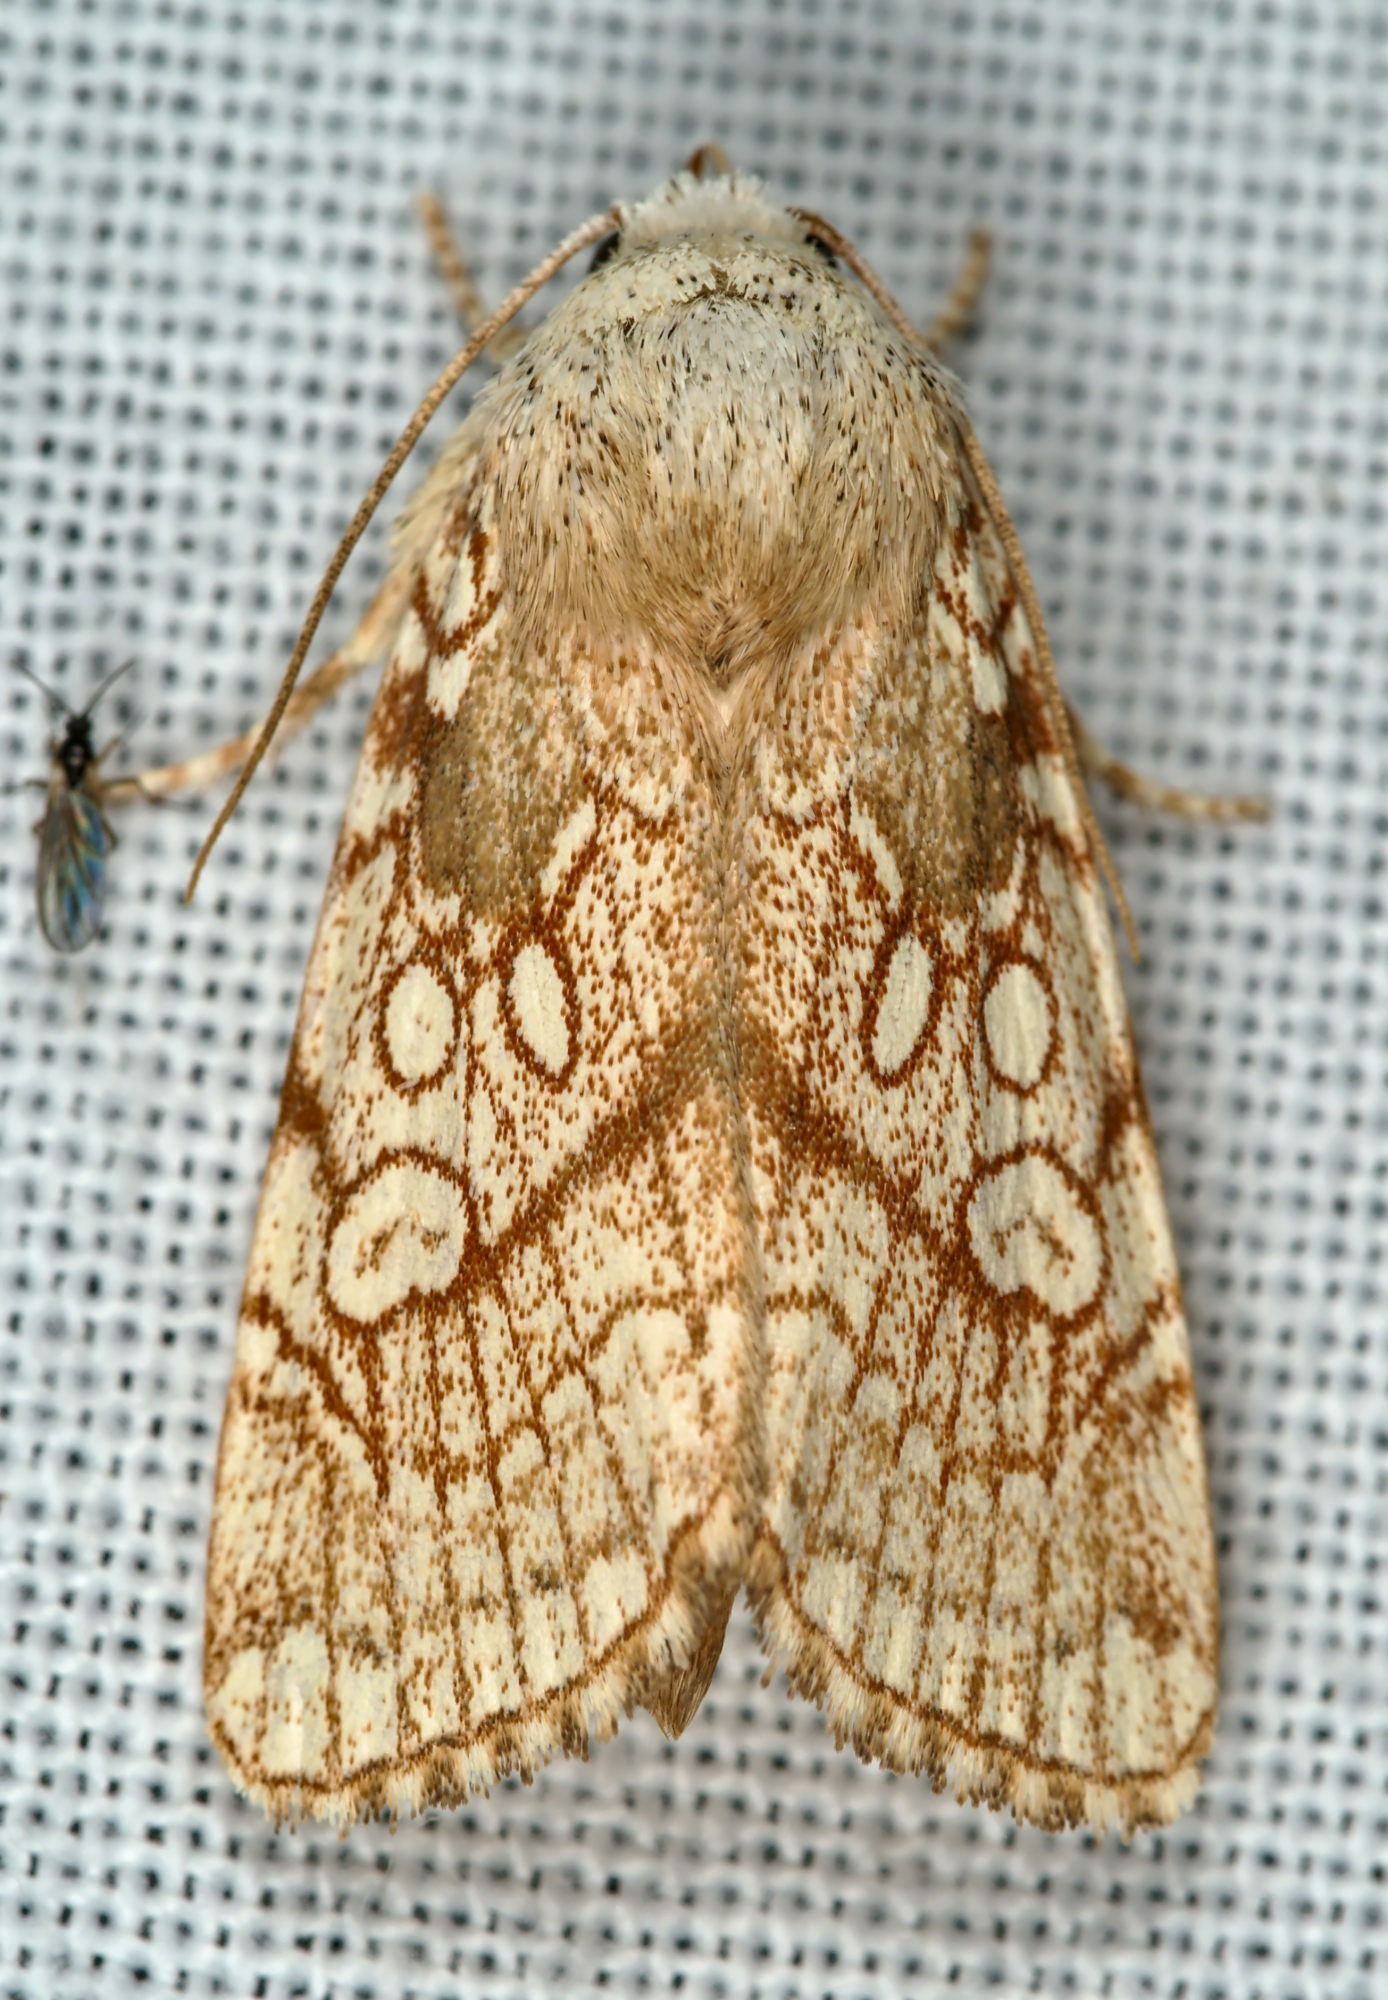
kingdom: Animalia
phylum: Arthropoda
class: Insecta
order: Lepidoptera
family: Noctuidae
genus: Dicycla
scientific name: Dicycla oo
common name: Heart moth
